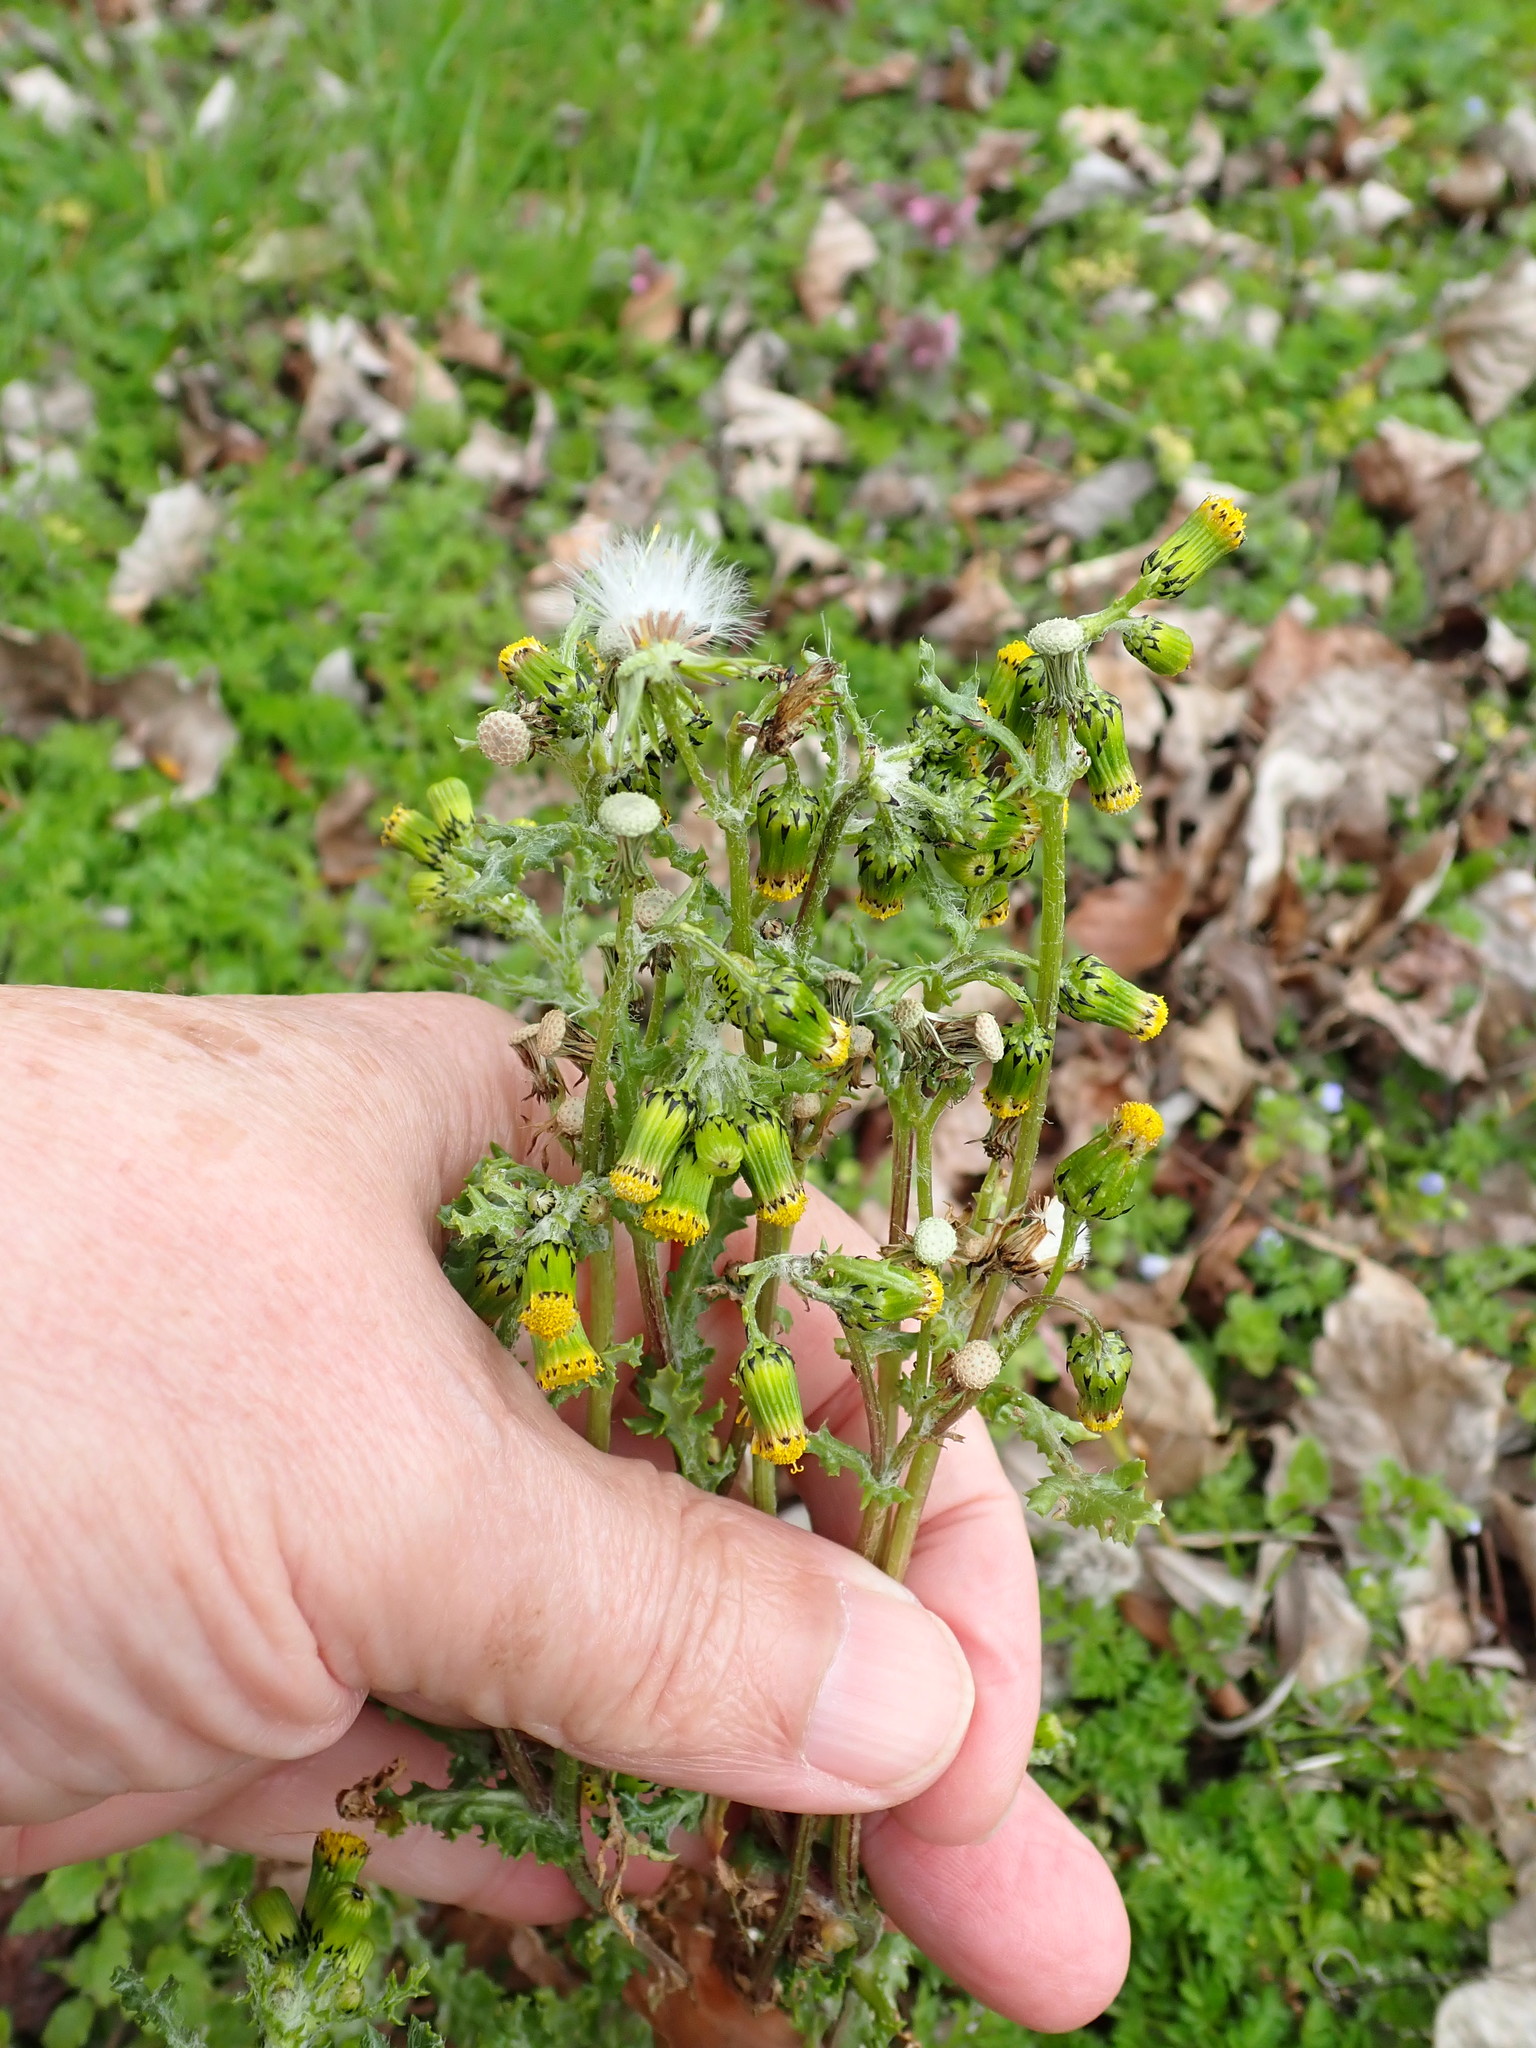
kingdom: Plantae
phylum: Tracheophyta
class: Magnoliopsida
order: Asterales
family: Asteraceae
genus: Senecio
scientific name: Senecio vulgaris
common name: Old-man-in-the-spring
